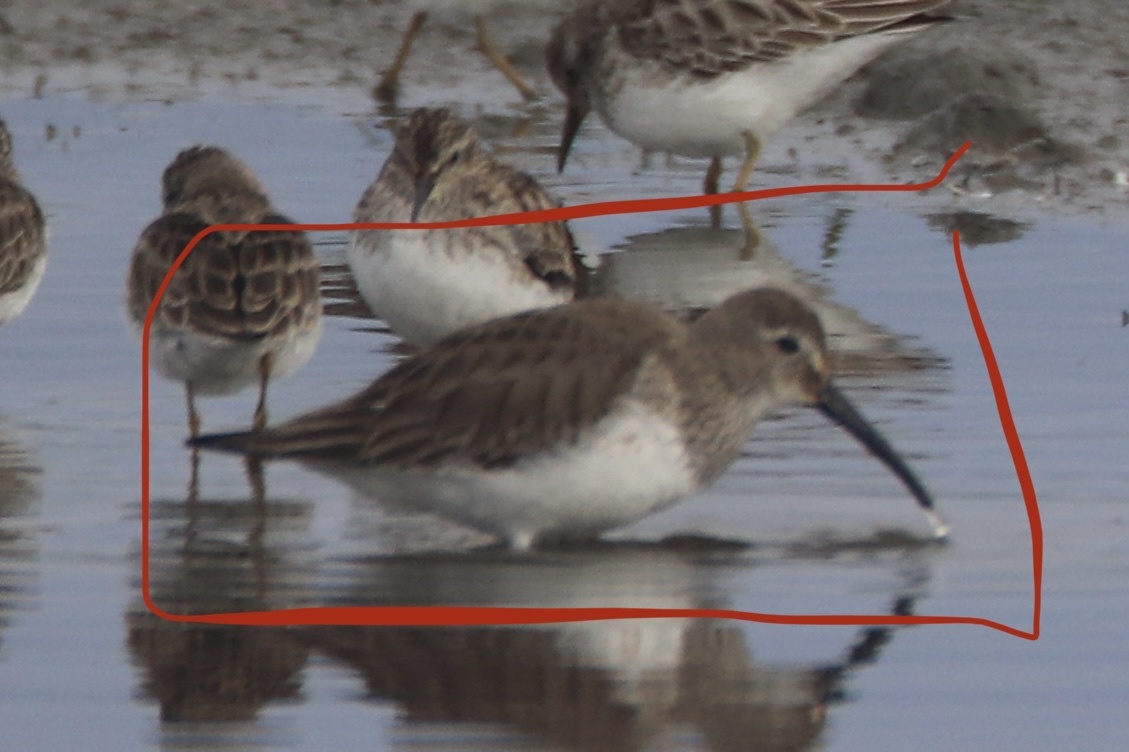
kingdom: Animalia
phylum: Chordata
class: Aves
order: Charadriiformes
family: Scolopacidae
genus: Calidris
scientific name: Calidris alpina
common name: Dunlin
